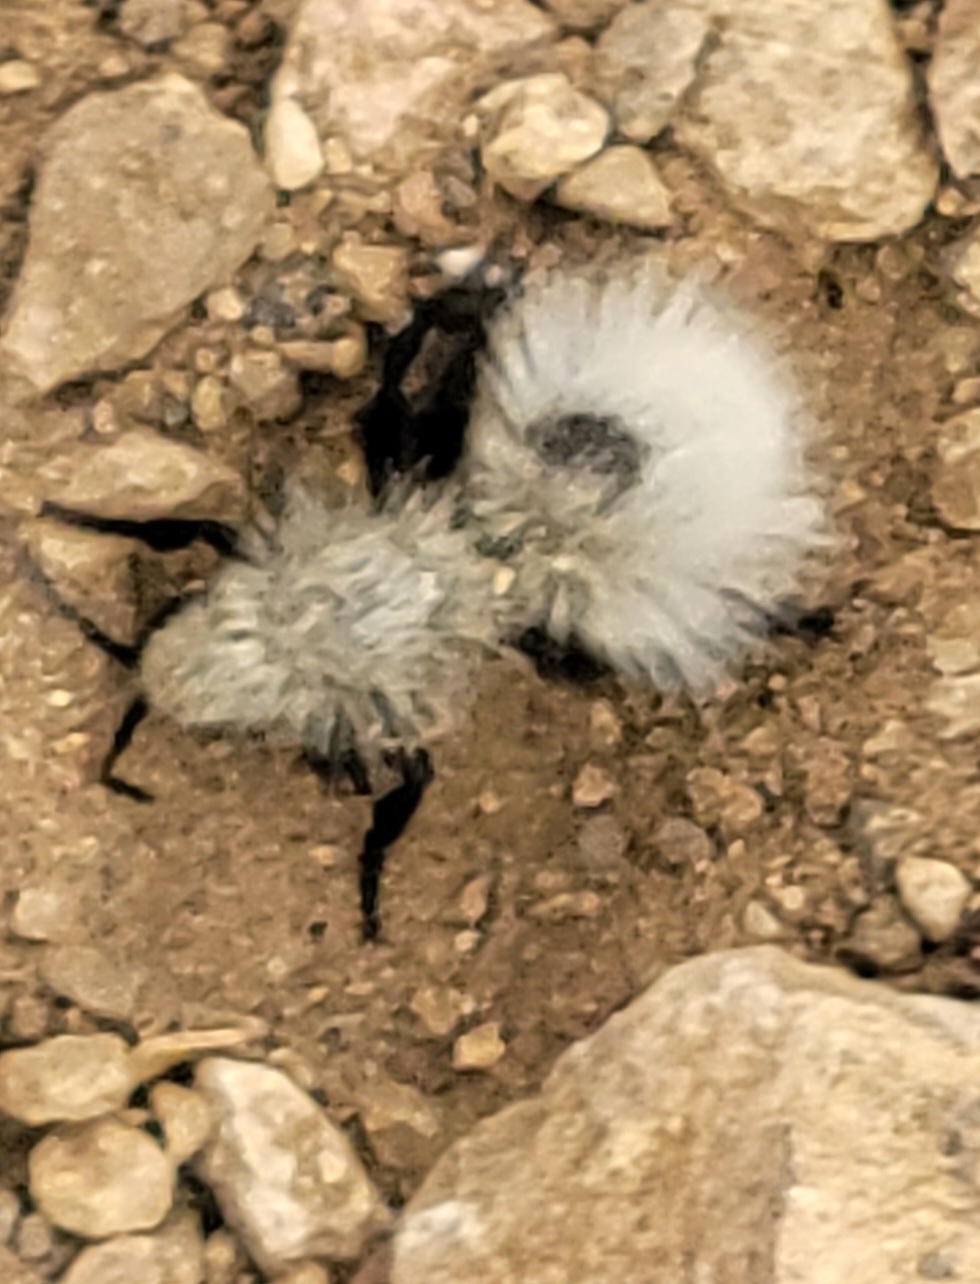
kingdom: Animalia
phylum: Arthropoda
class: Insecta
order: Hymenoptera
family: Mutillidae
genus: Dasymutilla
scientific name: Dasymutilla
